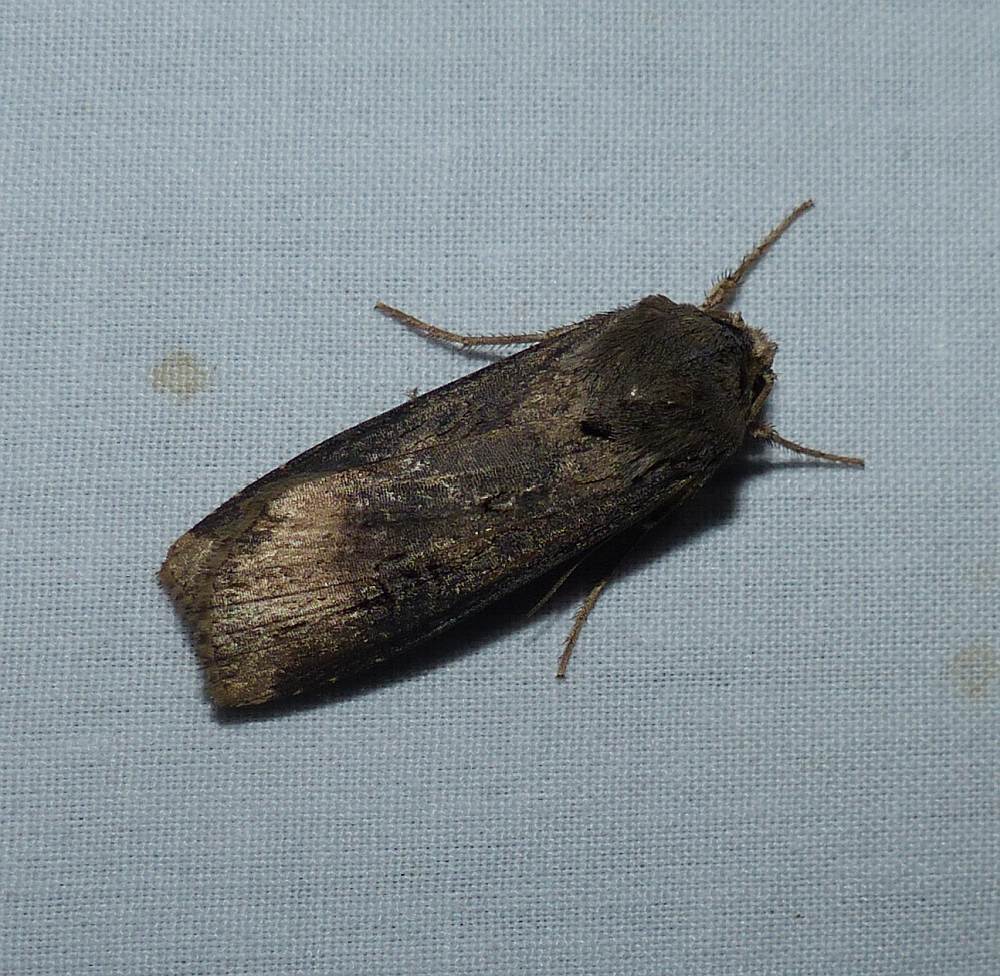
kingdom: Animalia
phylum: Arthropoda
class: Insecta
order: Lepidoptera
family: Noctuidae
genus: Agrotis
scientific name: Agrotis ipsilon
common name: Dark sword-grass
